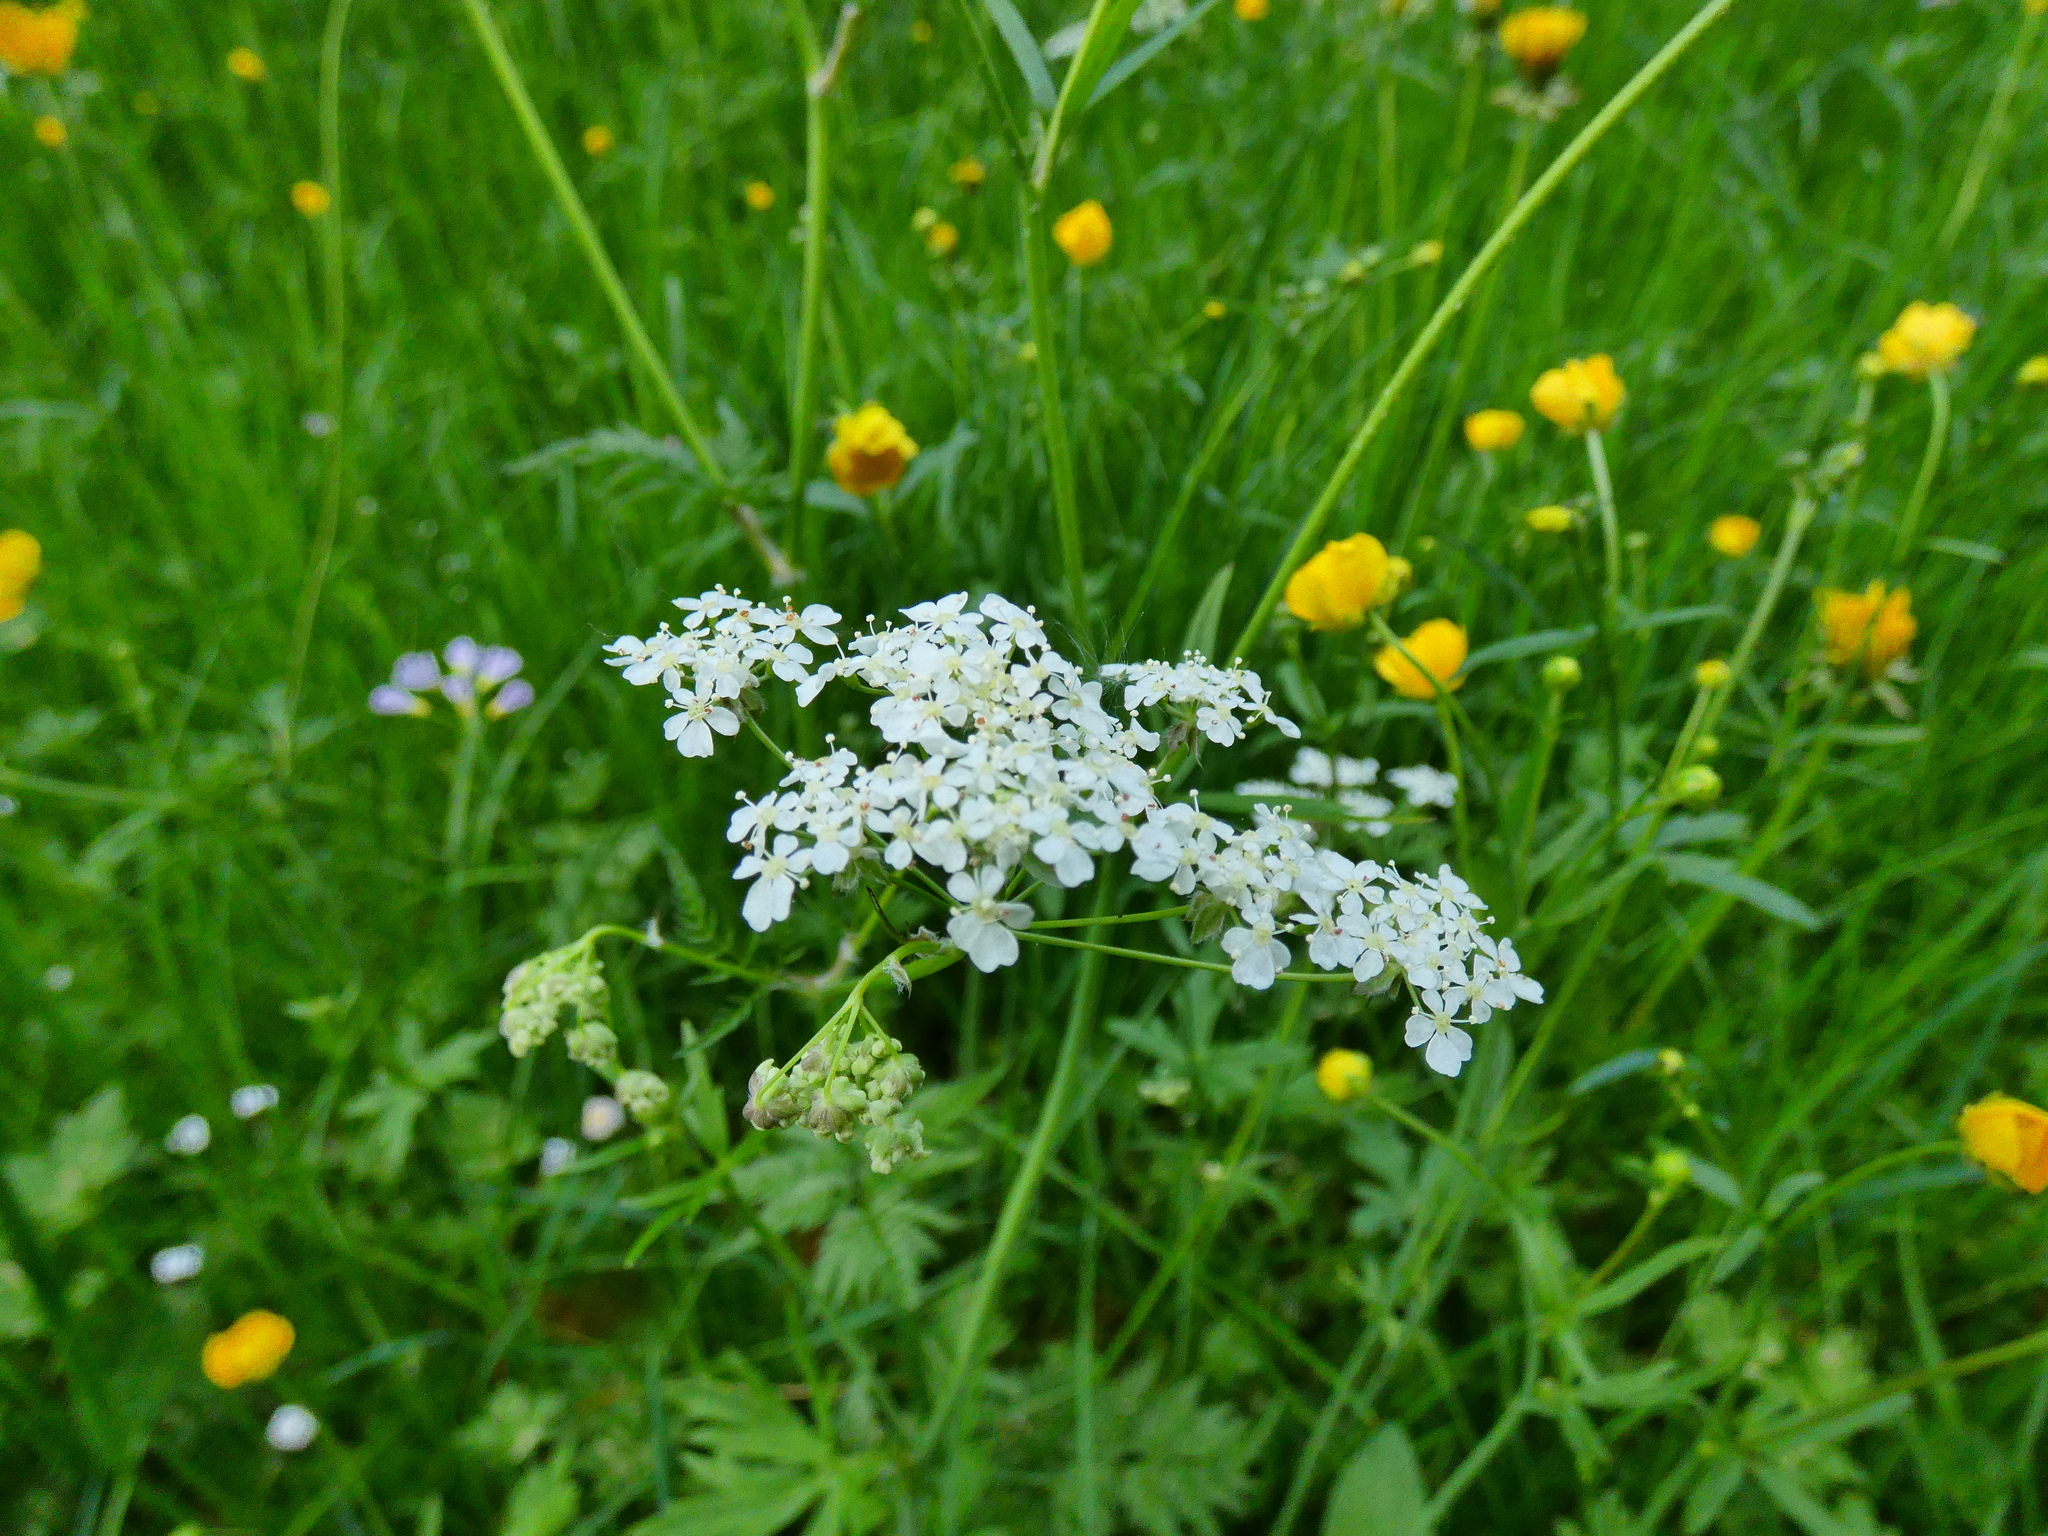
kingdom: Plantae
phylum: Tracheophyta
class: Magnoliopsida
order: Apiales
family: Apiaceae
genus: Anthriscus
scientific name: Anthriscus sylvestris
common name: Cow parsley
